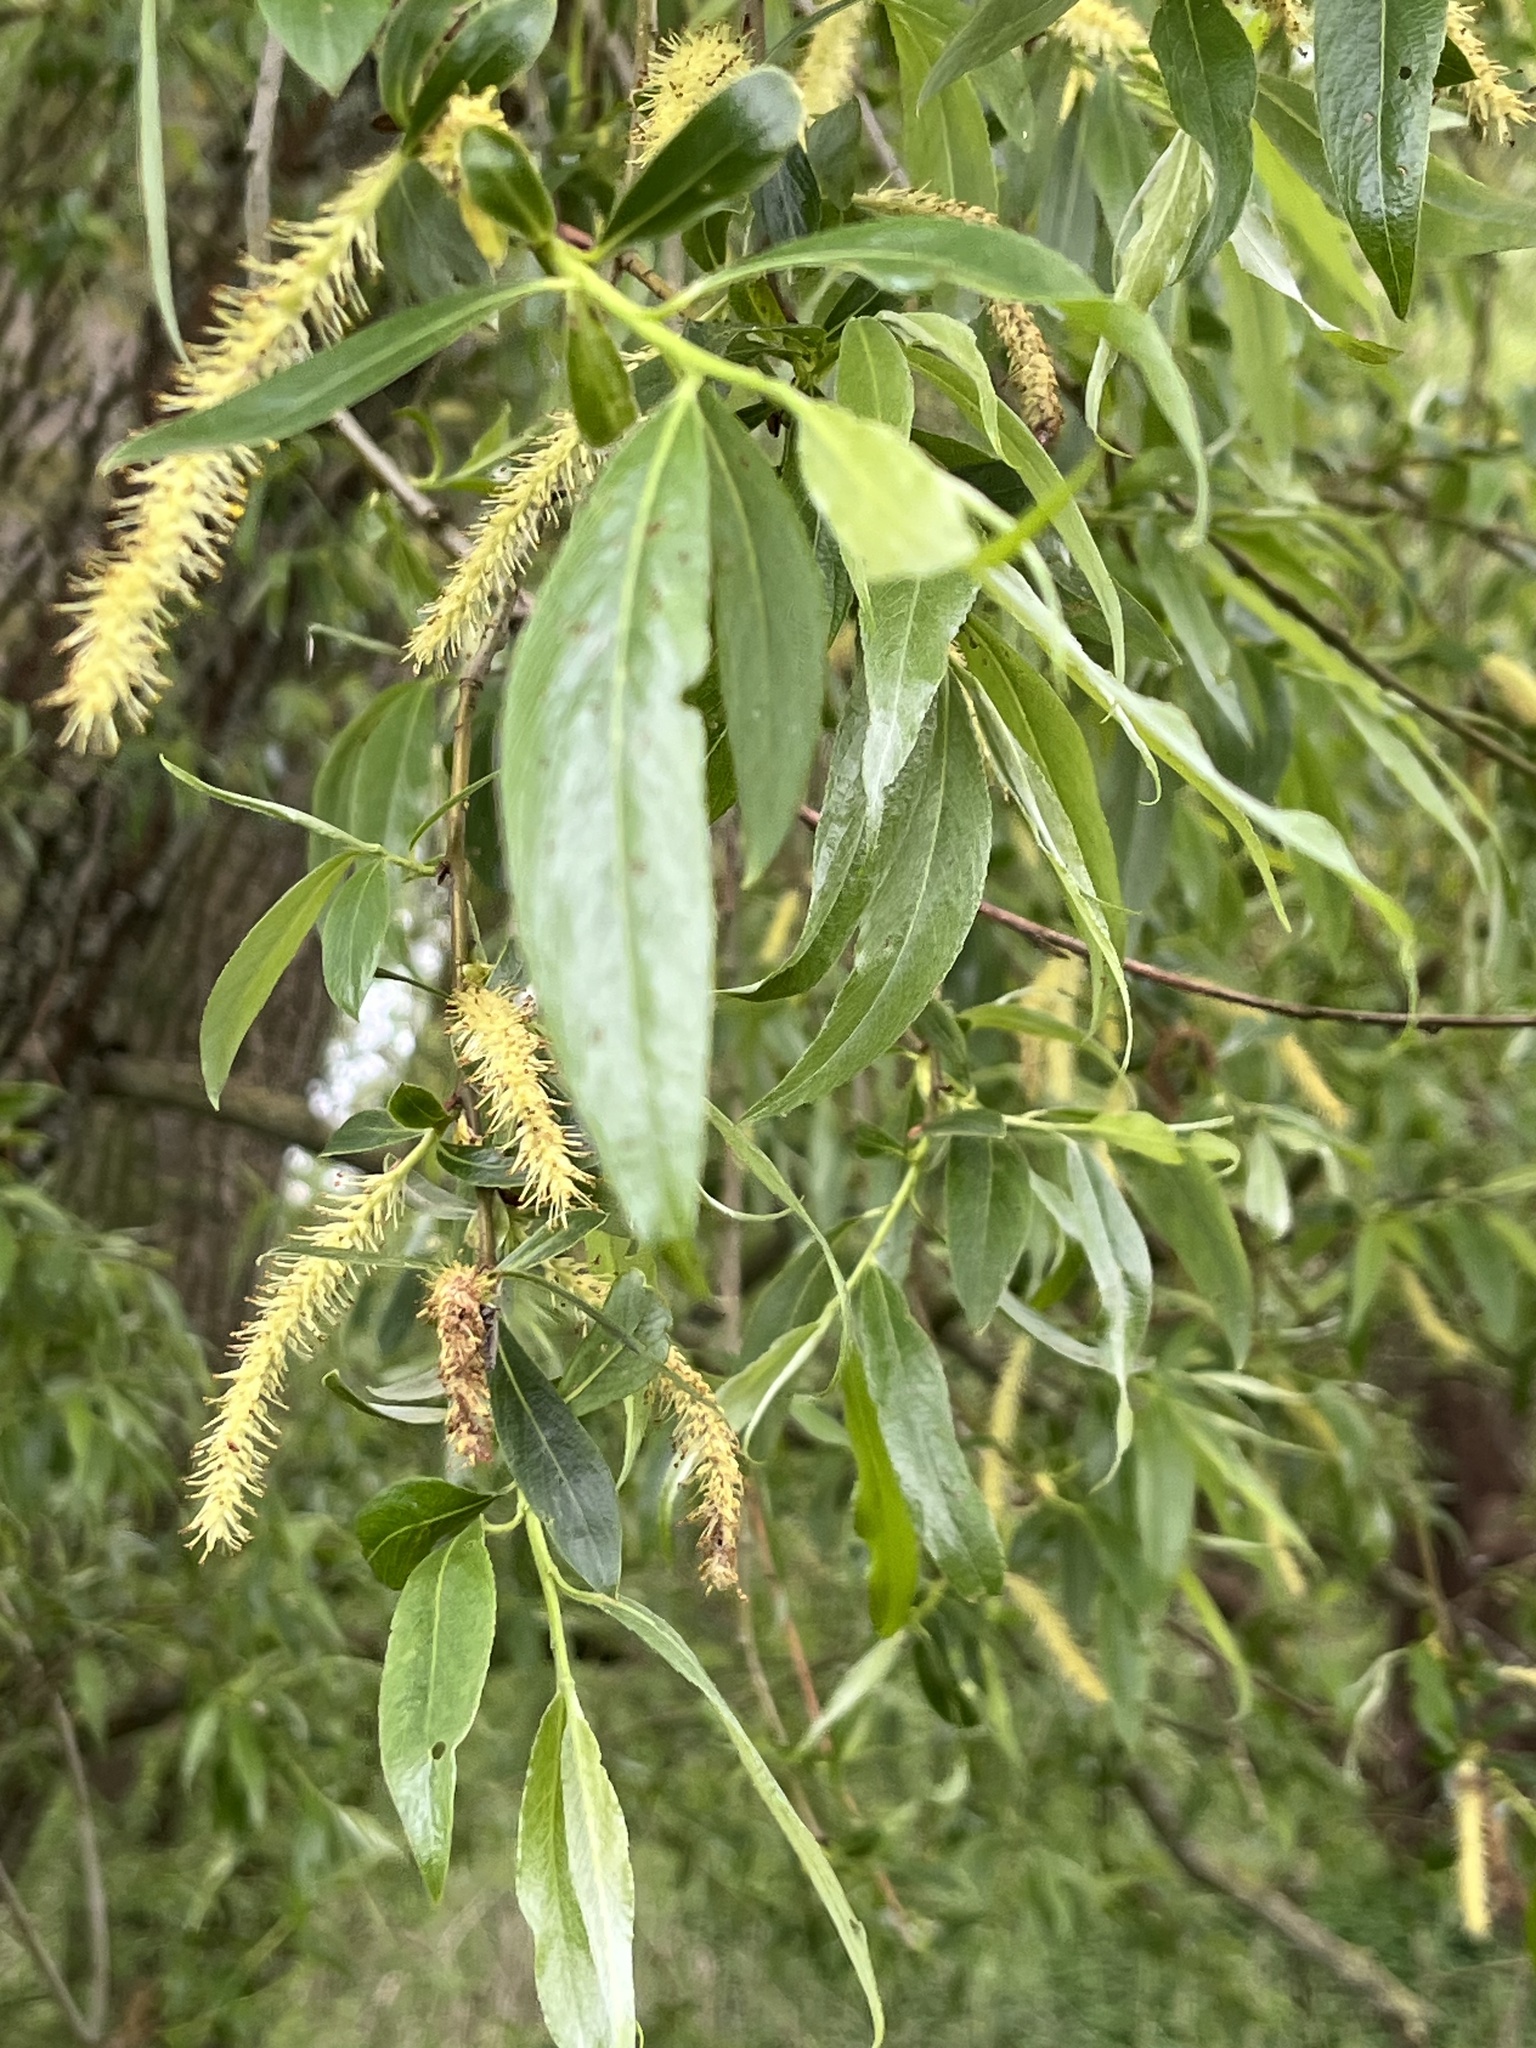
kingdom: Plantae
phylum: Tracheophyta
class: Magnoliopsida
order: Malpighiales
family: Salicaceae
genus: Salix
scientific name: Salix alba
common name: White willow
